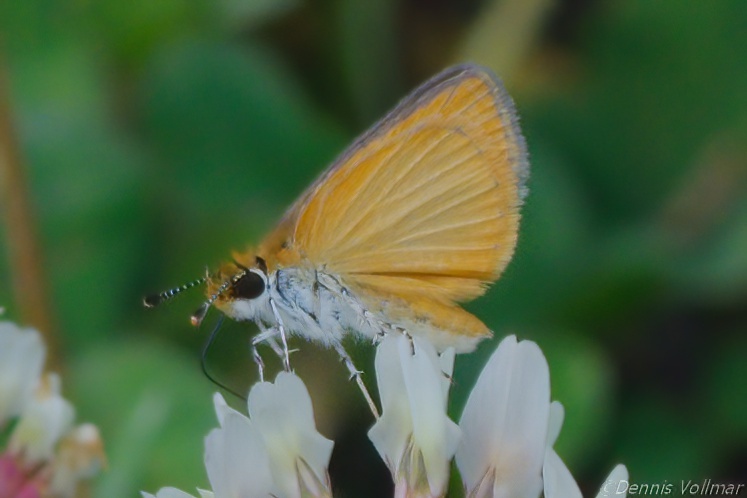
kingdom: Animalia
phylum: Arthropoda
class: Insecta
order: Lepidoptera
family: Hesperiidae
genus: Ancyloxypha
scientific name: Ancyloxypha numitor
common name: Least skipper
